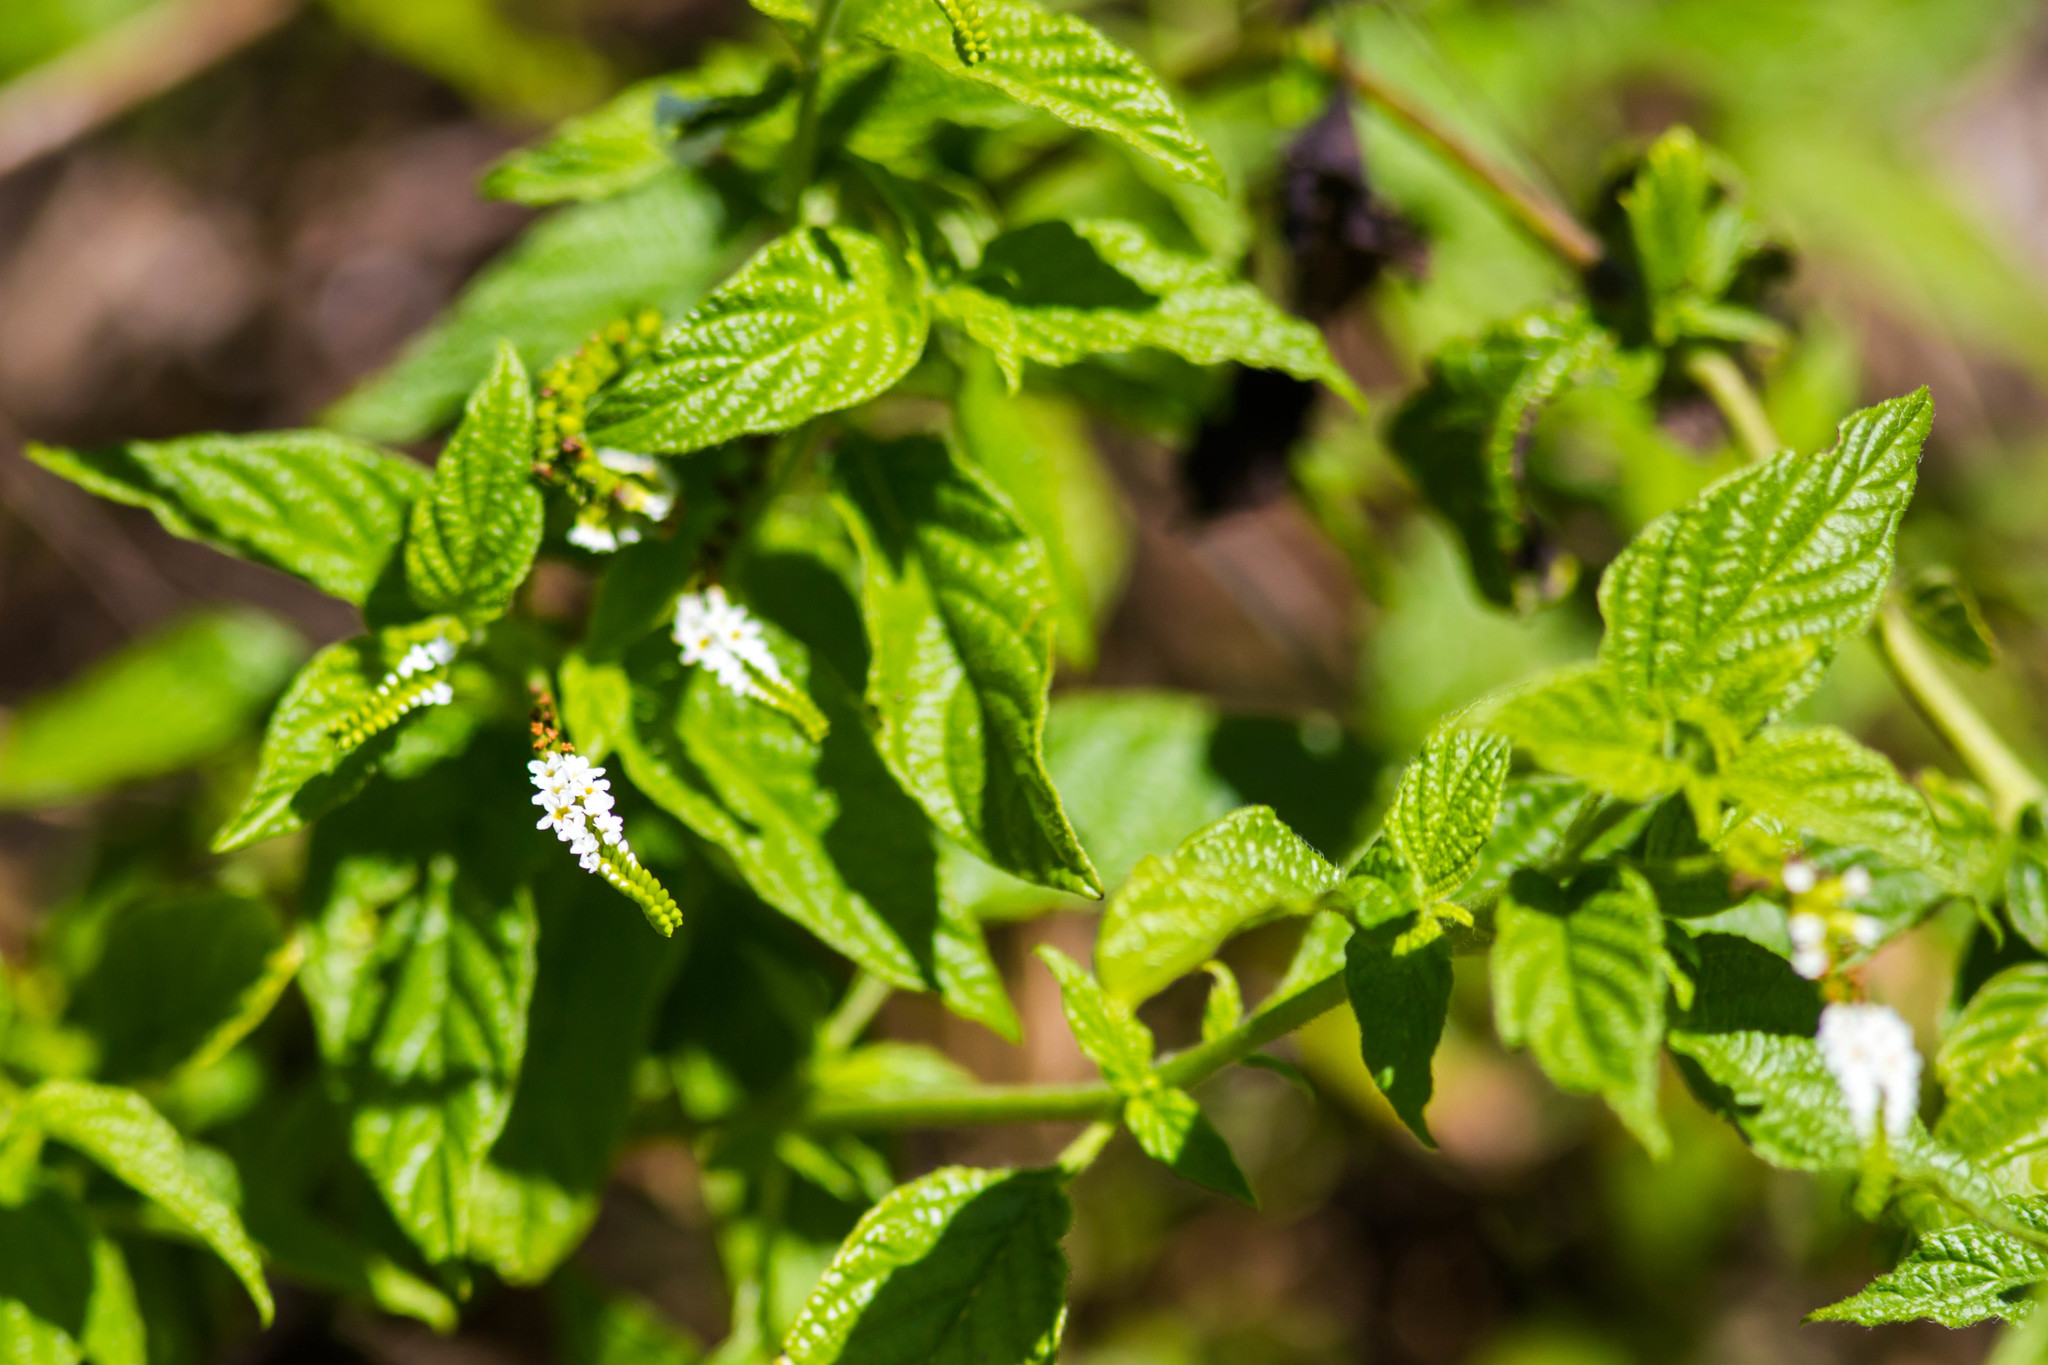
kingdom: Plantae
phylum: Tracheophyta
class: Magnoliopsida
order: Boraginales
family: Heliotropiaceae
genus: Heliotropium
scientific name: Heliotropium angiospermum
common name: Eye bright
